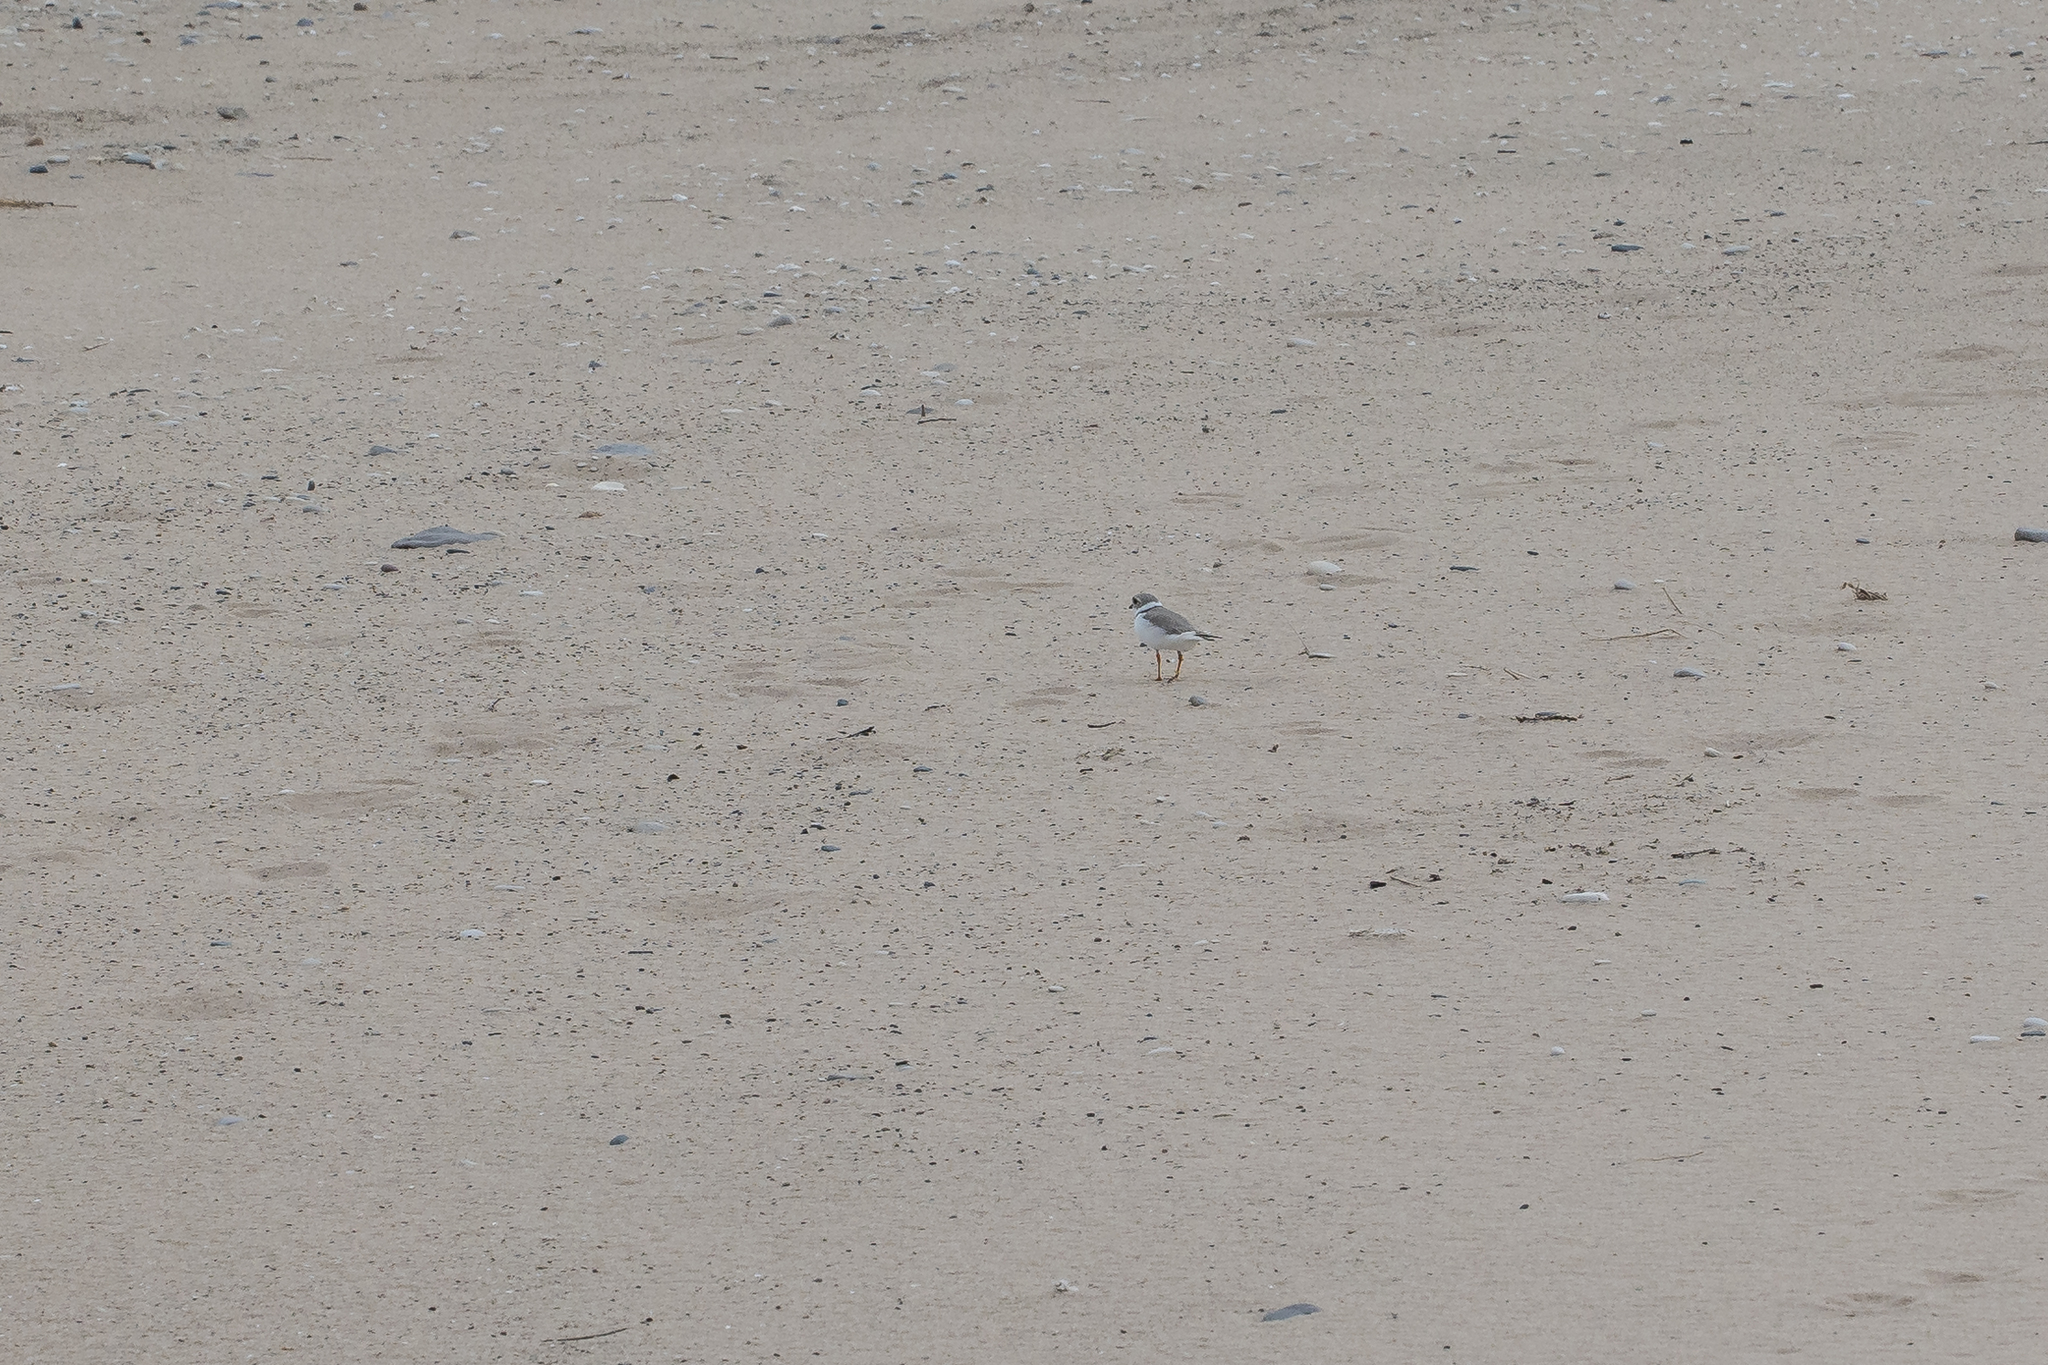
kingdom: Animalia
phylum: Chordata
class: Aves
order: Charadriiformes
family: Charadriidae
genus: Charadrius
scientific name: Charadrius melodus
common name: Piping plover
